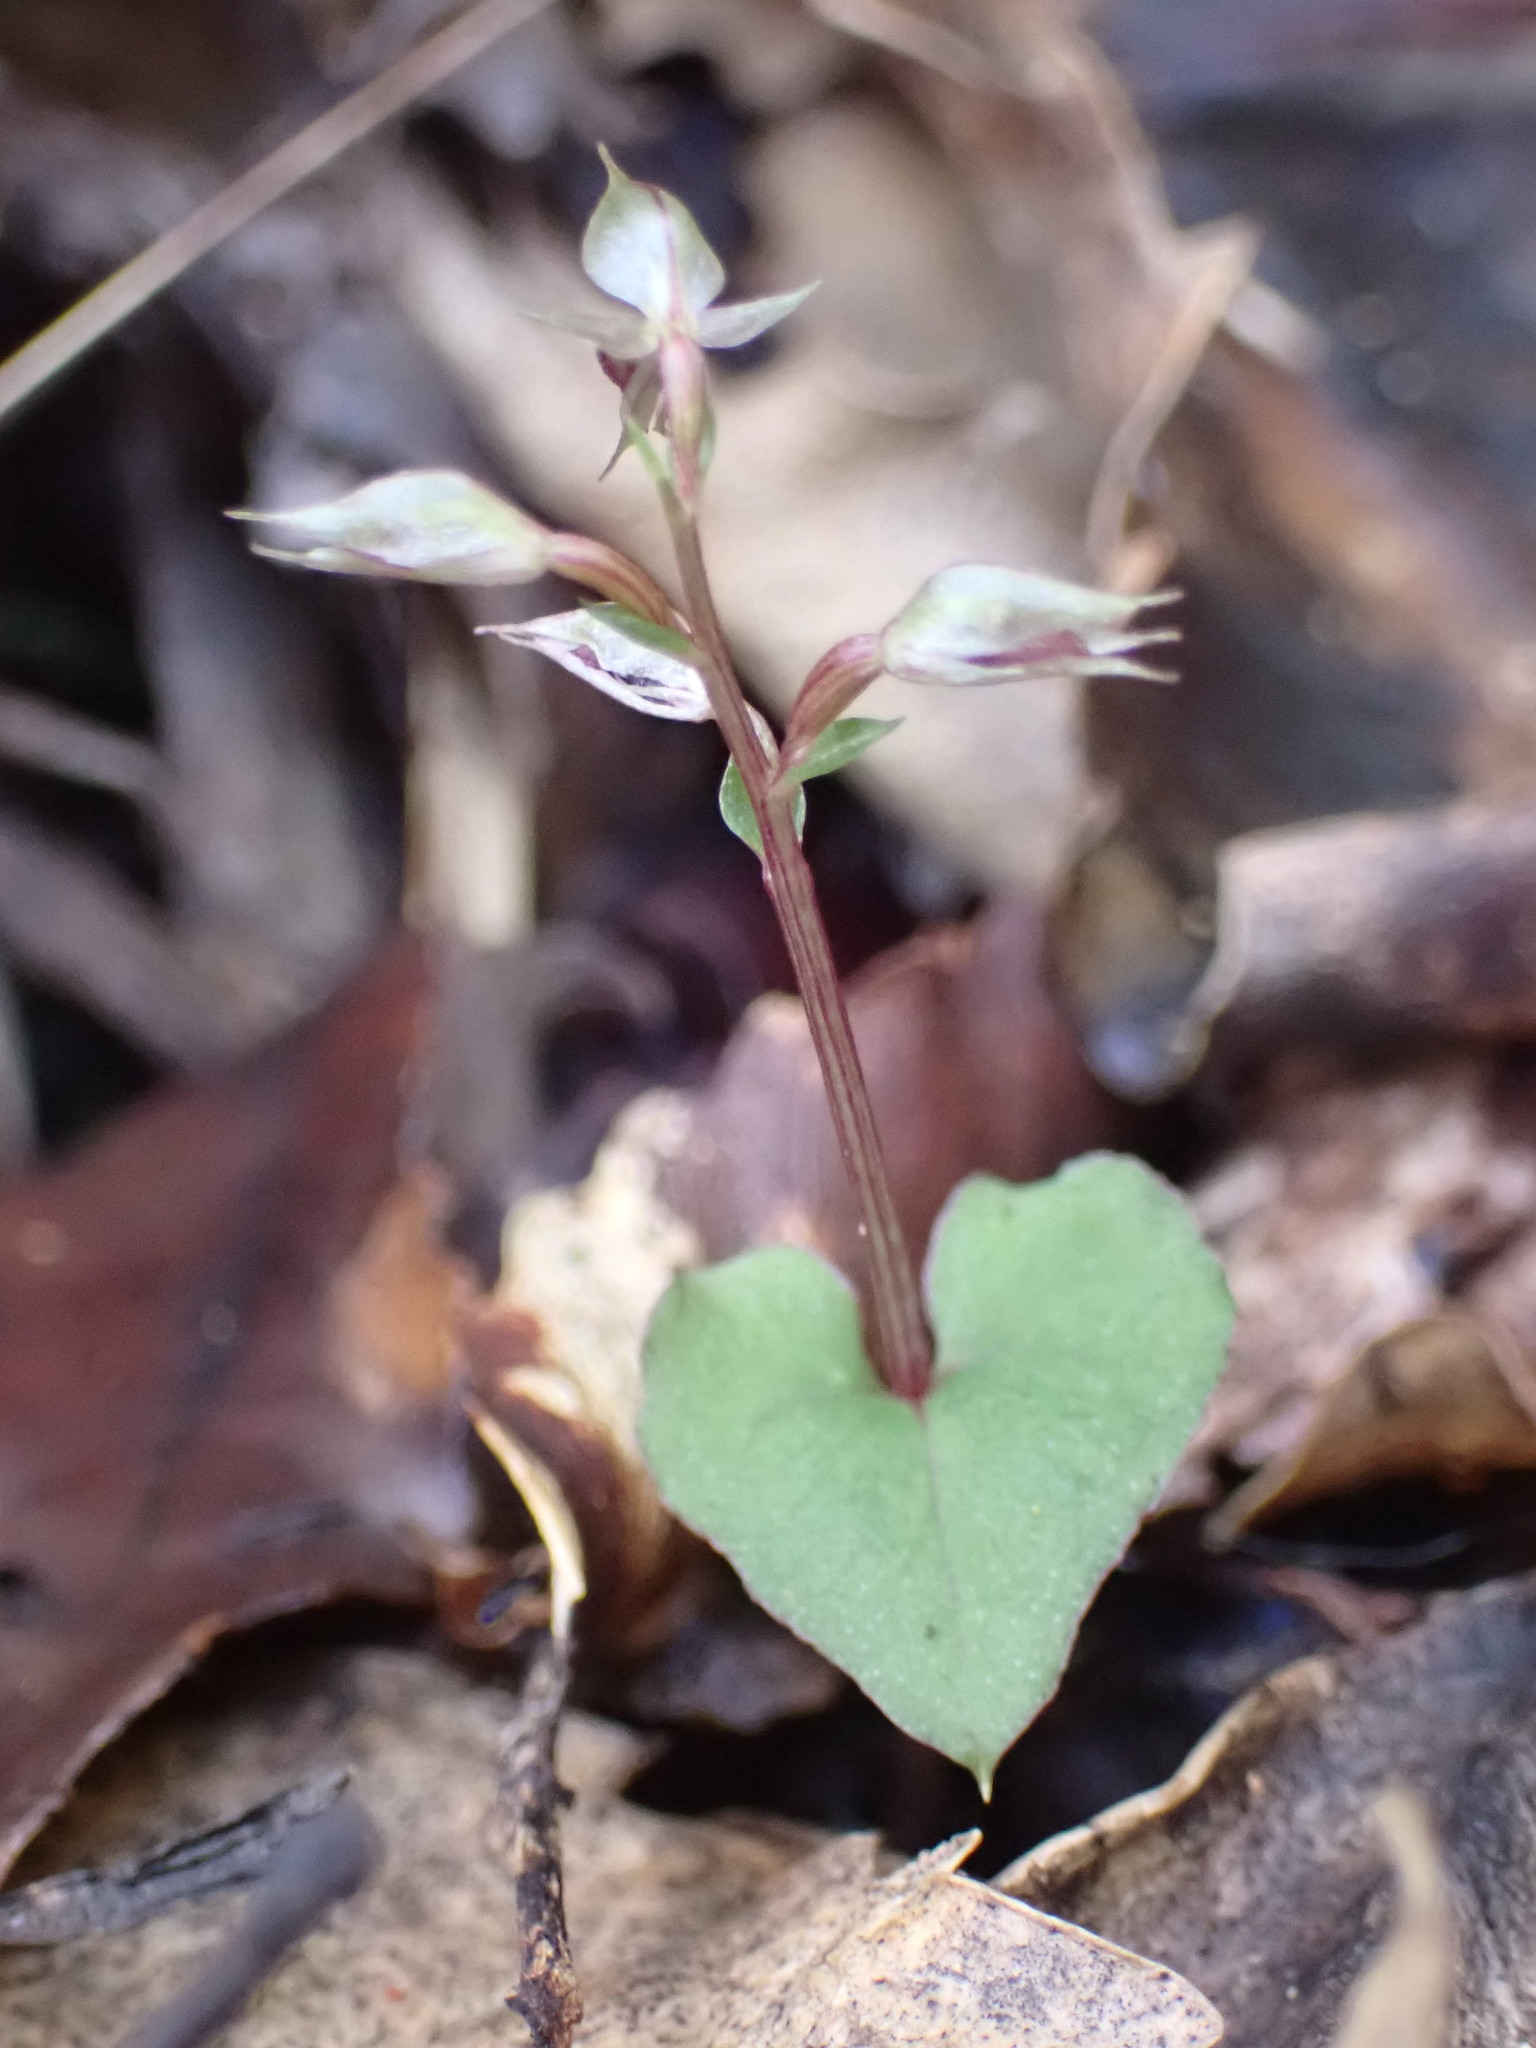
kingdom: Plantae
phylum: Tracheophyta
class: Liliopsida
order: Asparagales
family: Orchidaceae
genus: Acianthus
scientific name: Acianthus sinclairii
